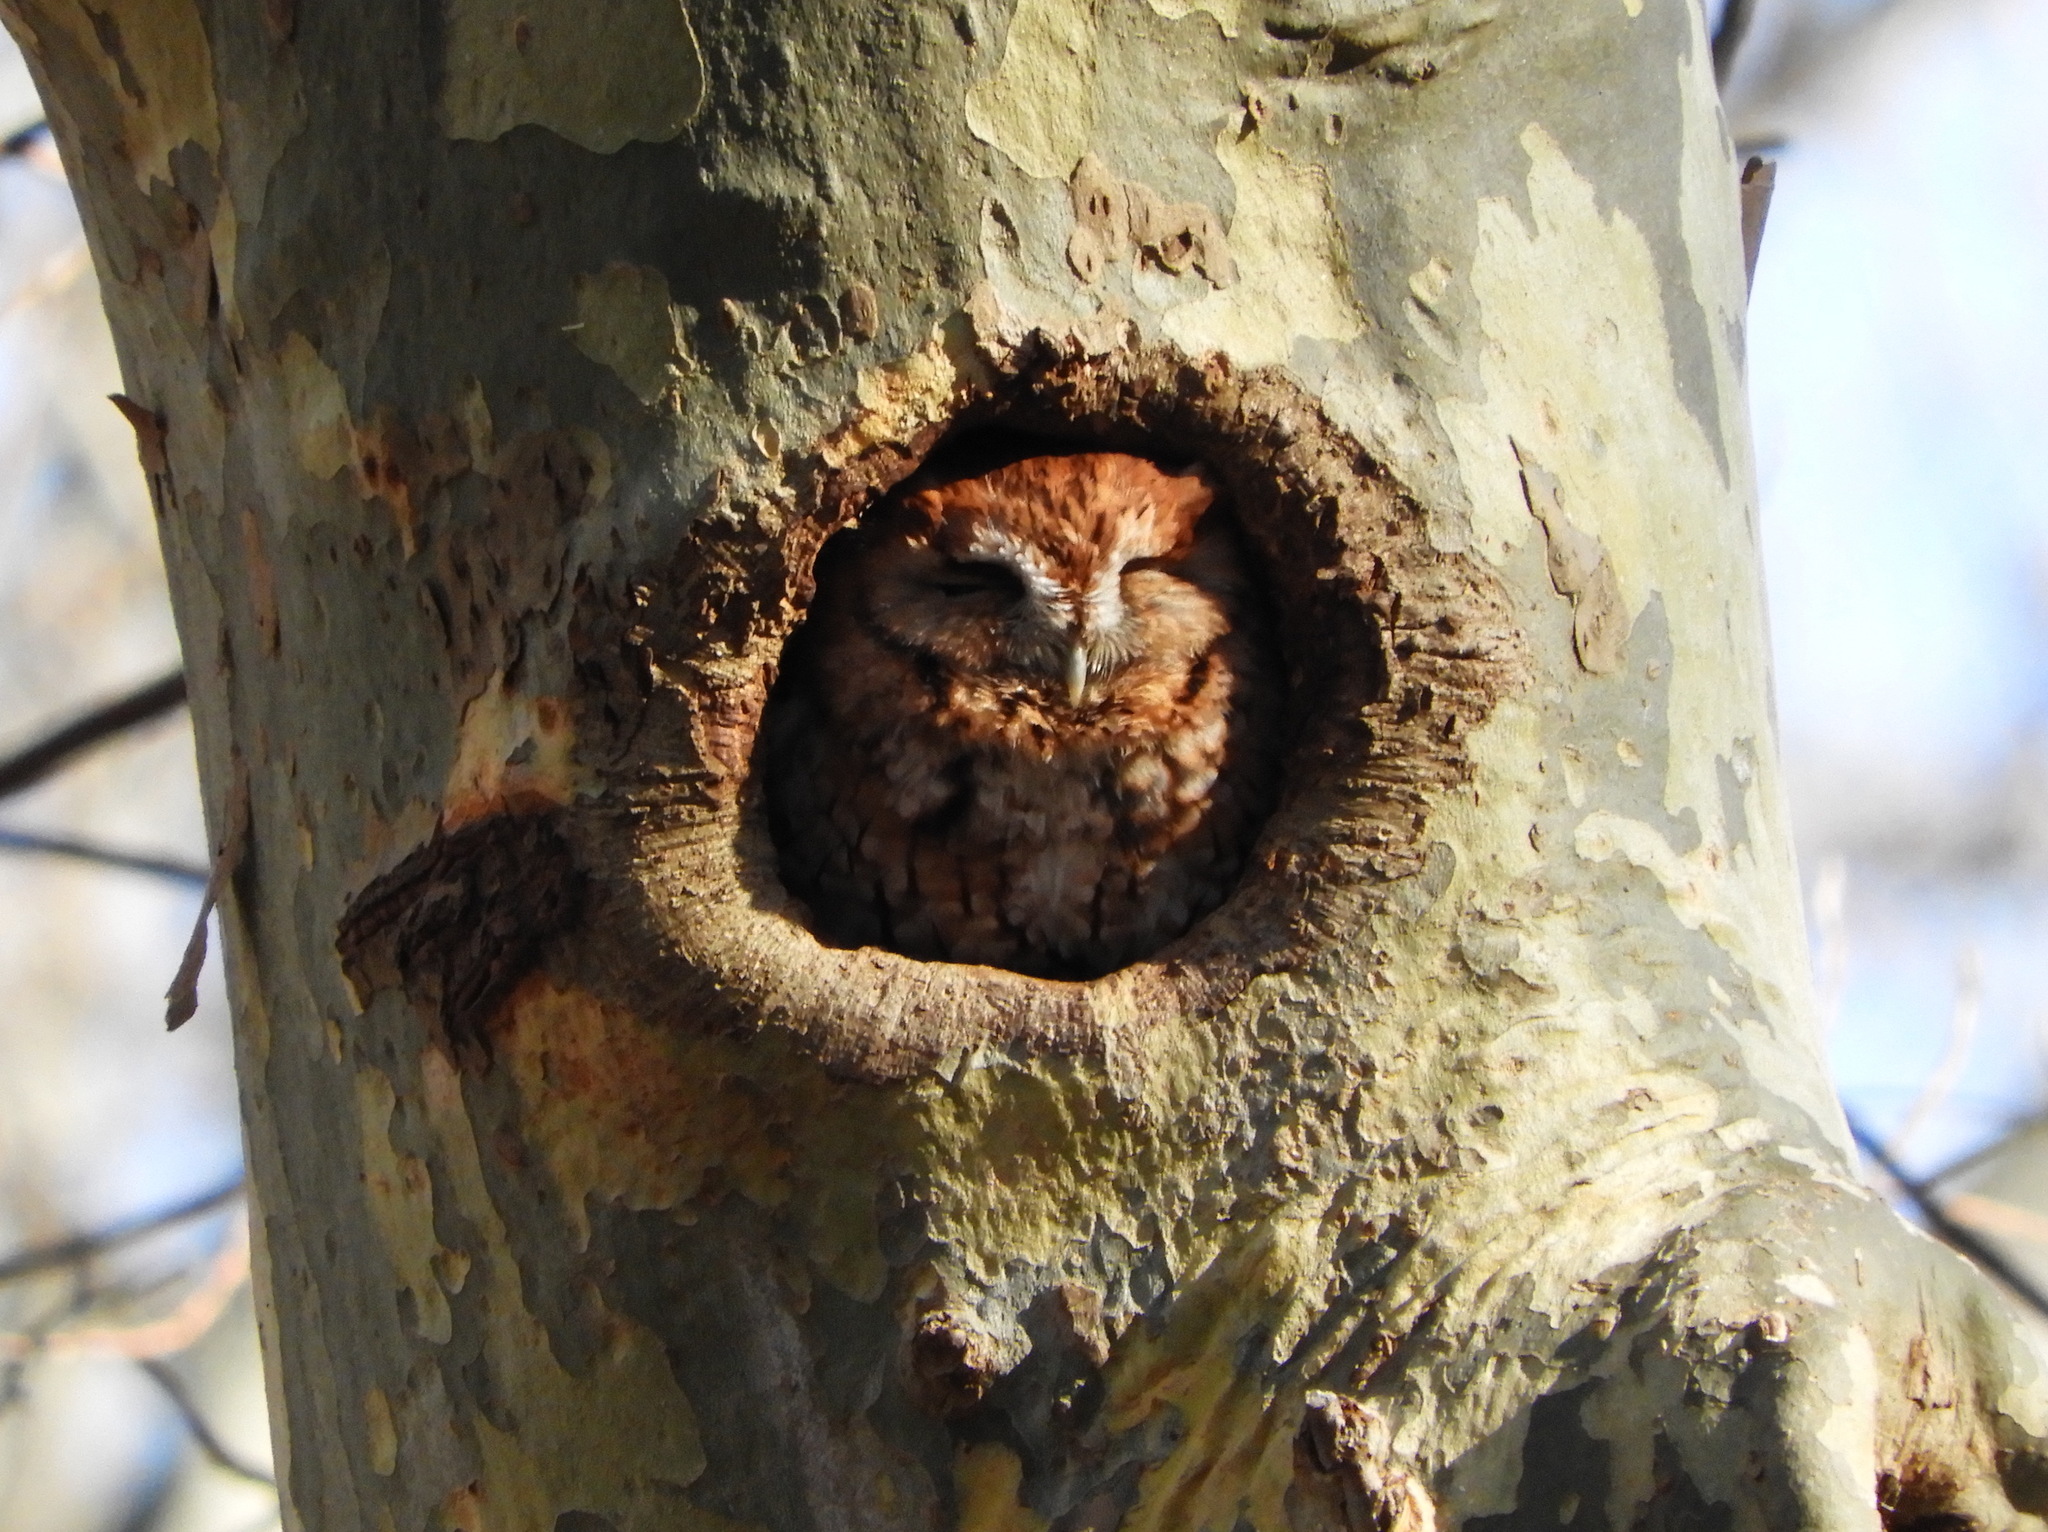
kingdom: Animalia
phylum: Chordata
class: Aves
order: Strigiformes
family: Strigidae
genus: Megascops
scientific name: Megascops asio
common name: Eastern screech-owl
